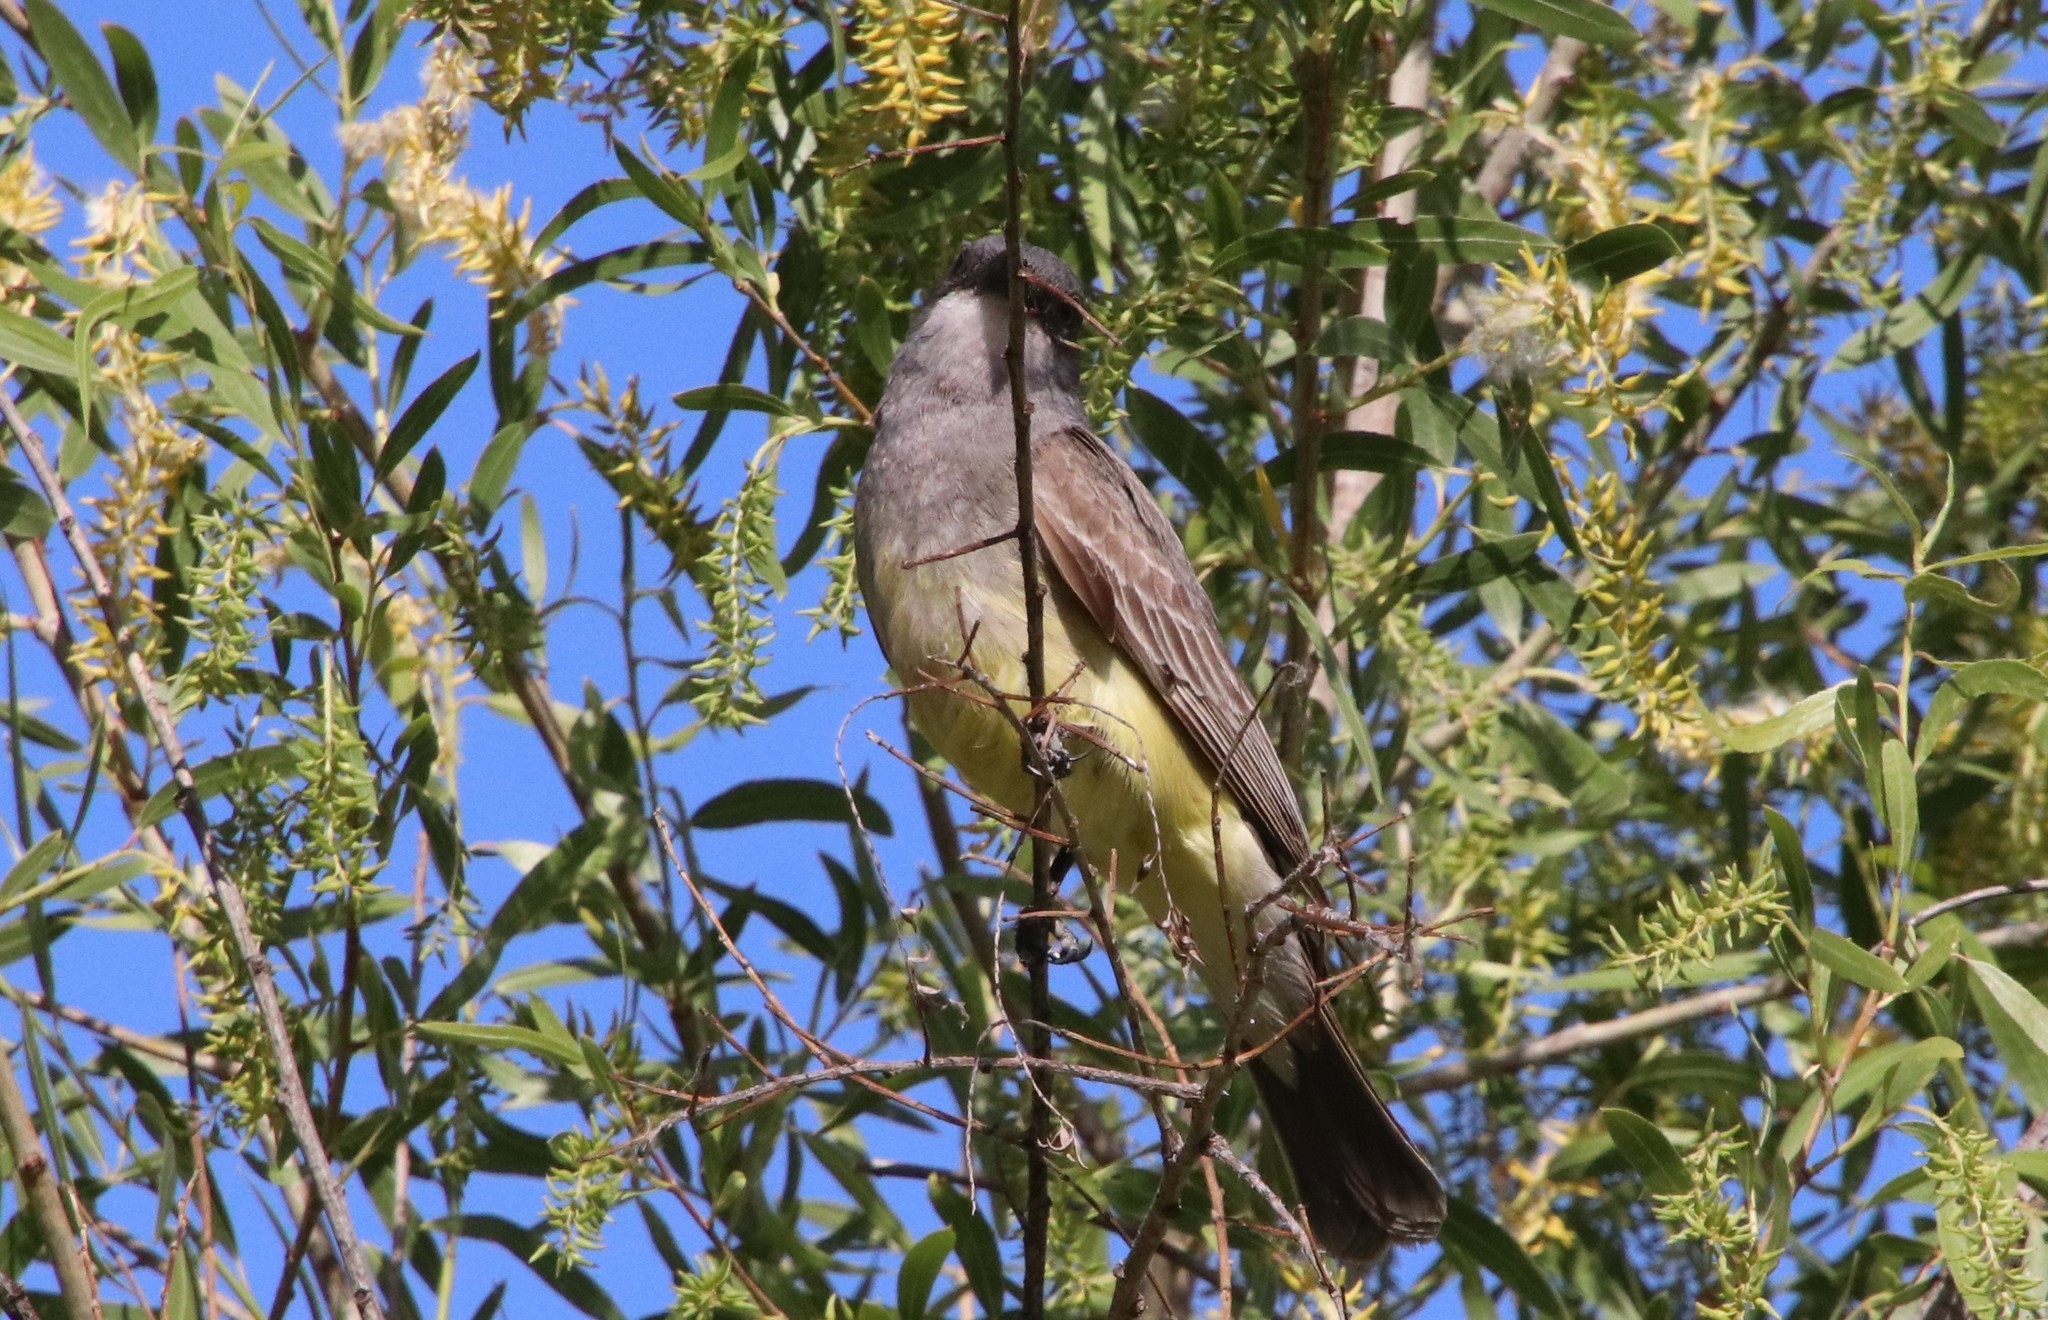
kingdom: Animalia
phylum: Chordata
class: Aves
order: Passeriformes
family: Tyrannidae
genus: Tyrannus
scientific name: Tyrannus vociferans
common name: Cassin's kingbird
